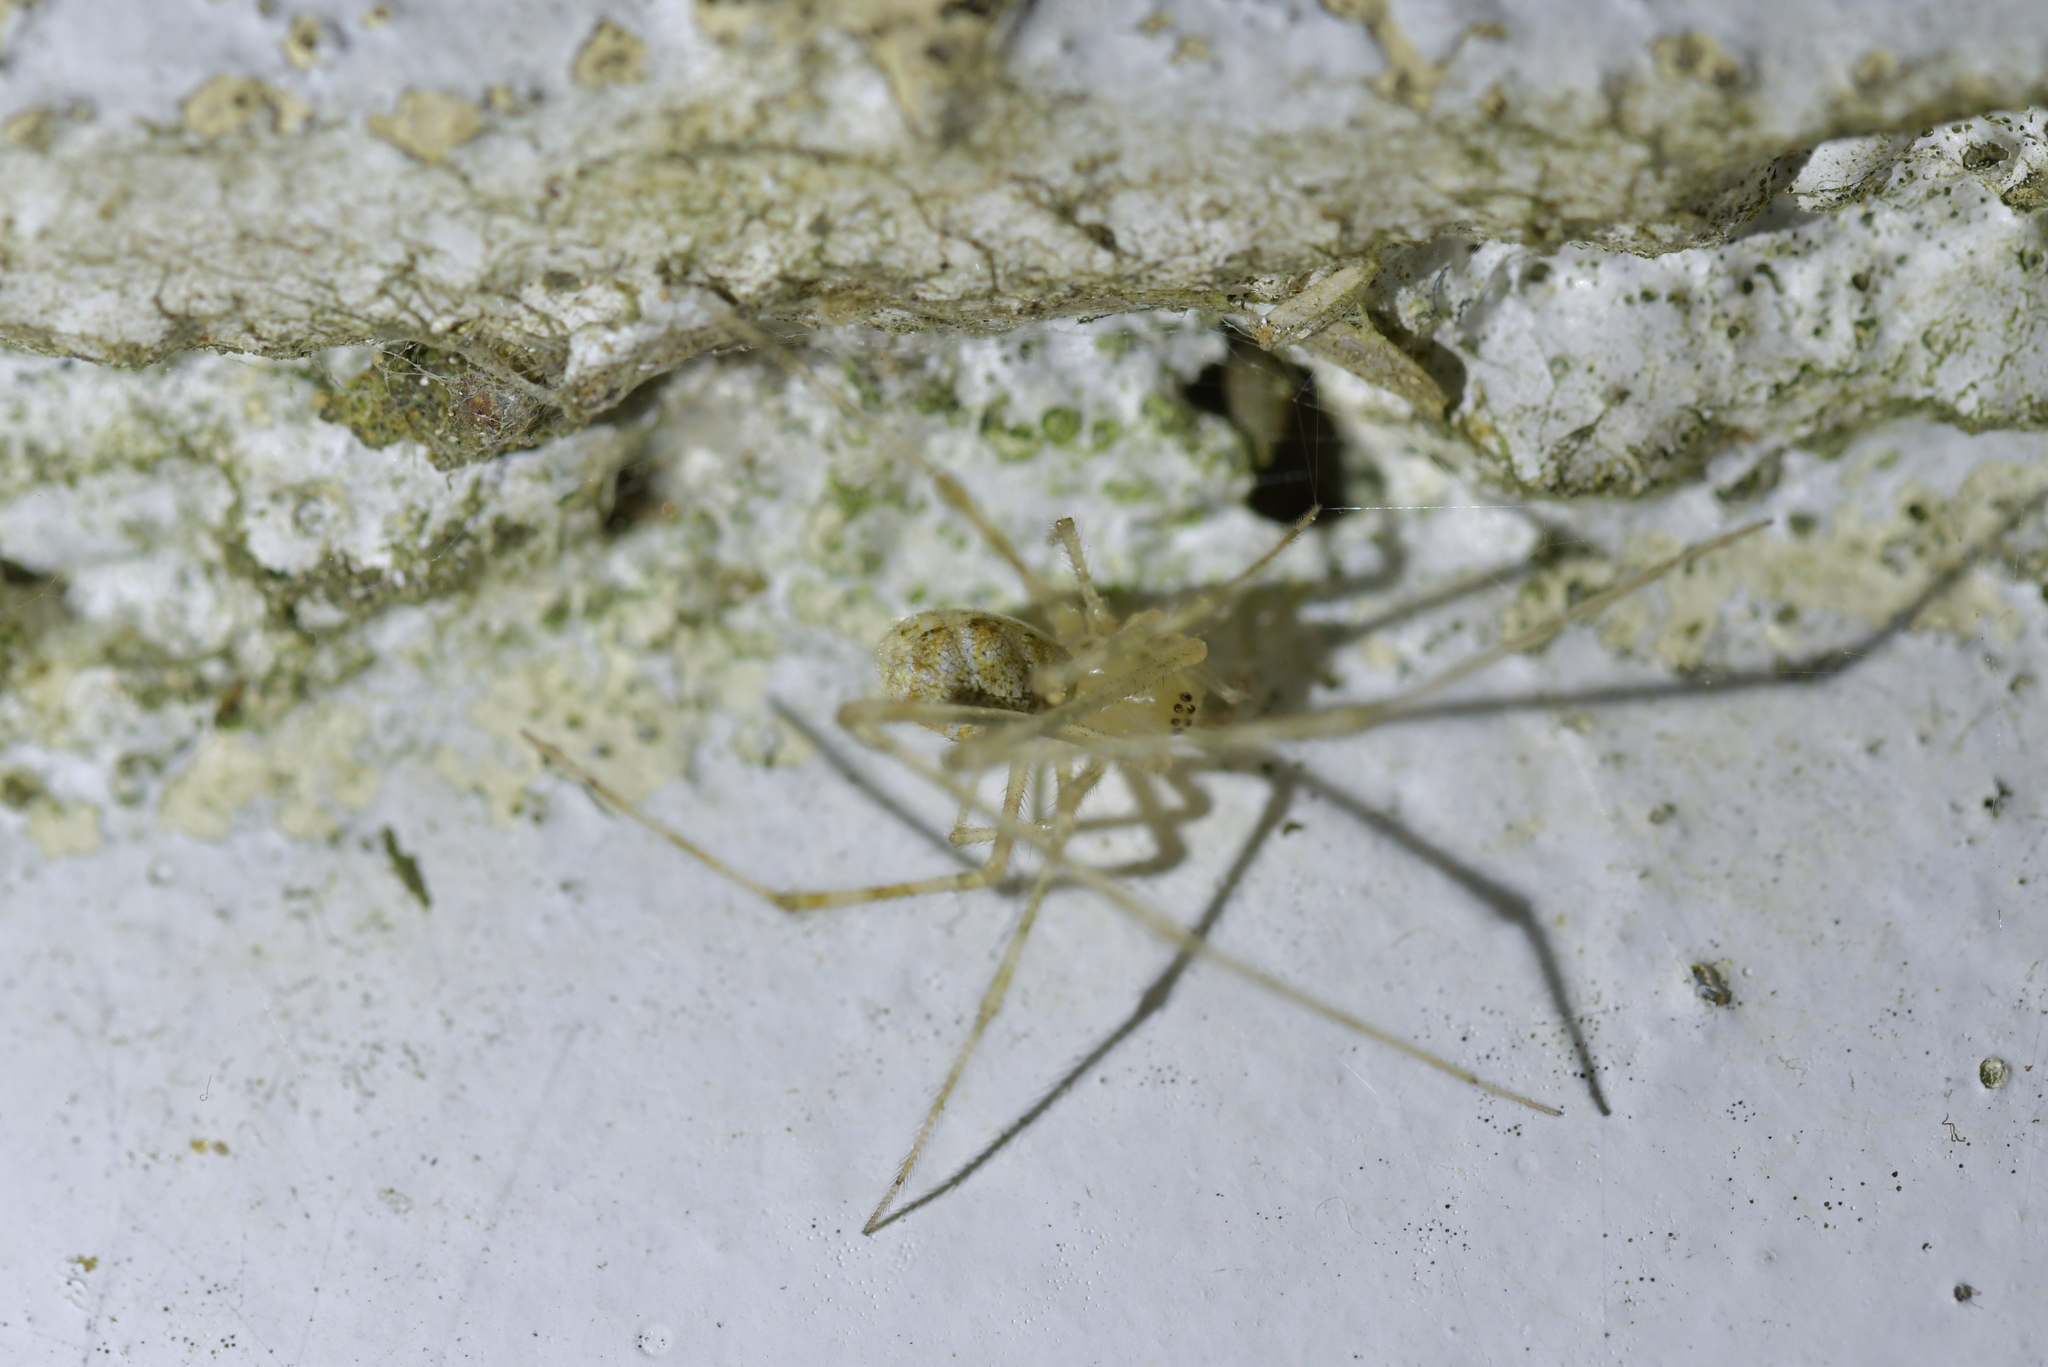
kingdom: Animalia
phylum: Arthropoda
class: Arachnida
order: Araneae
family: Theridiidae
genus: Cryptachaea
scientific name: Cryptachaea gigantipes
